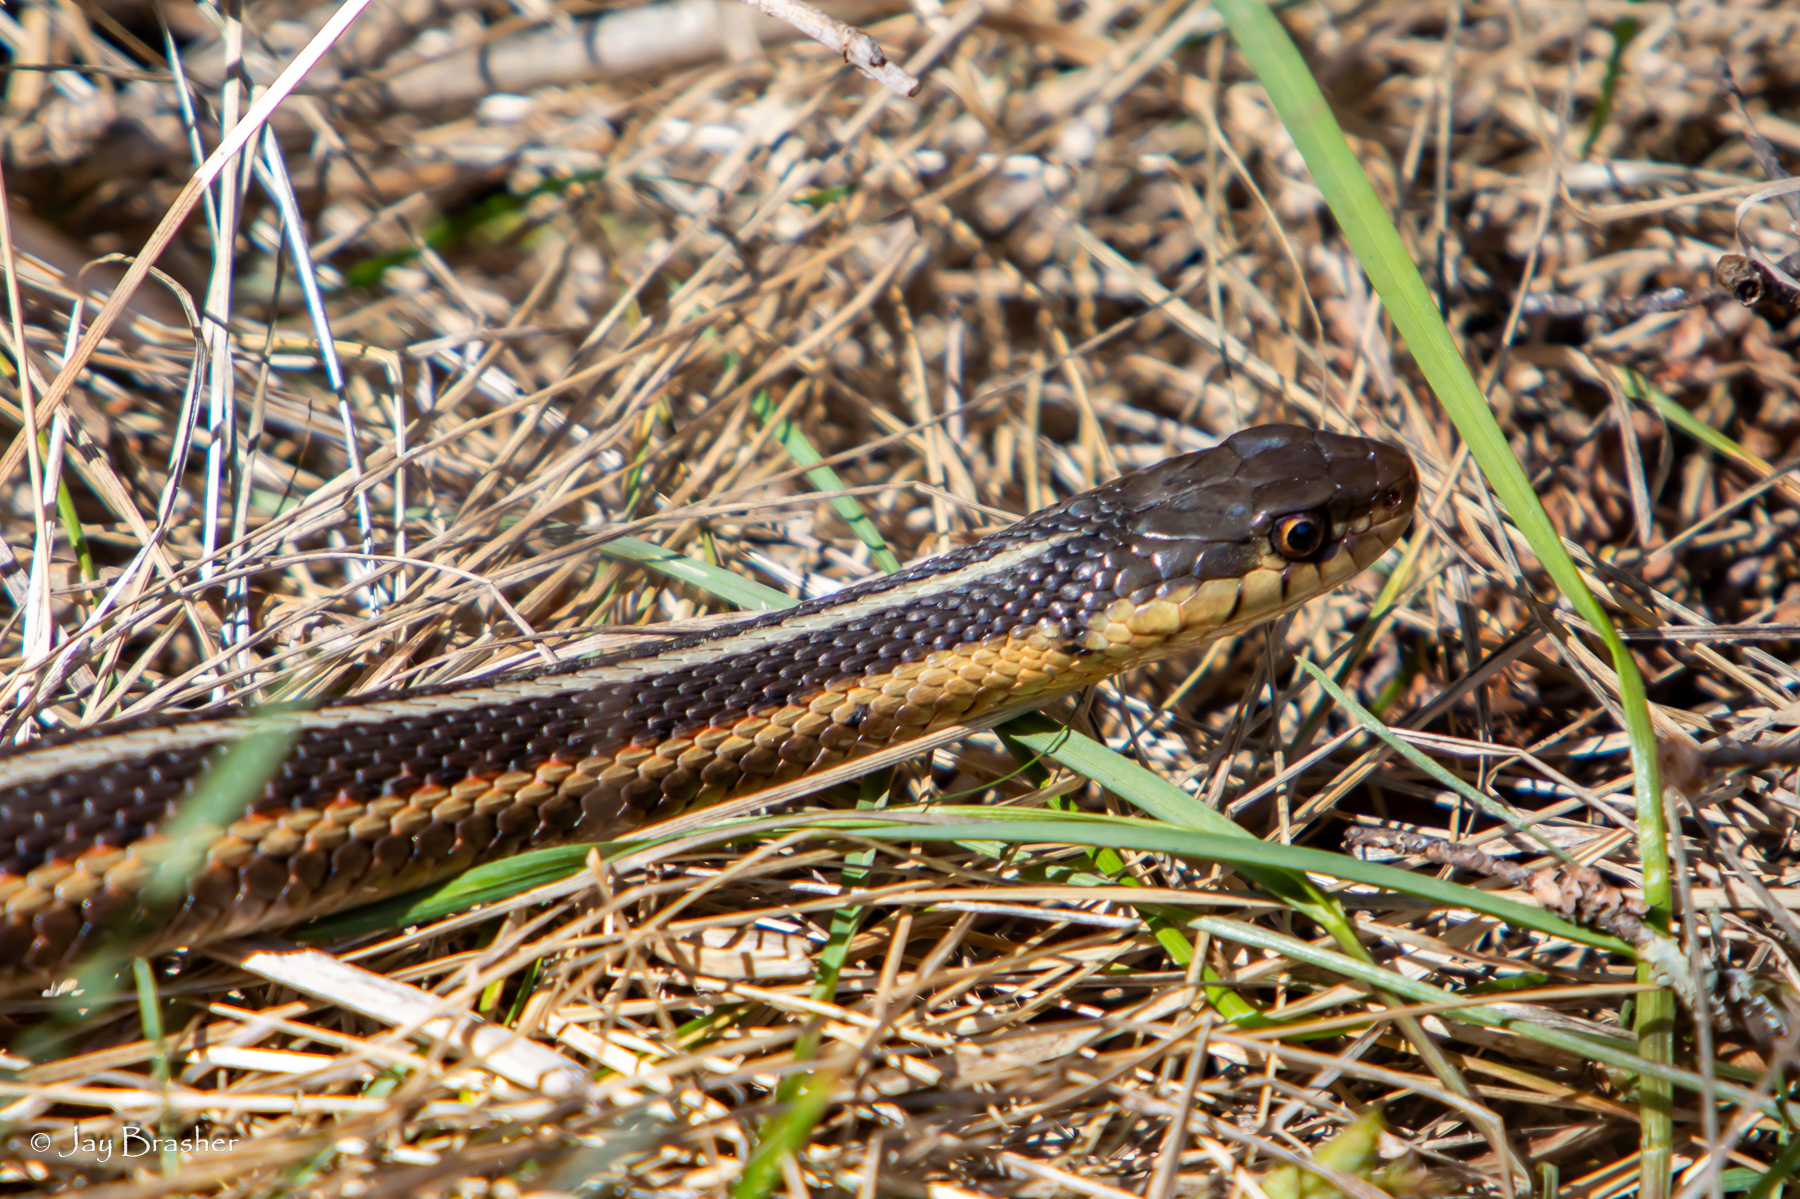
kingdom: Animalia
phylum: Chordata
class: Squamata
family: Colubridae
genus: Thamnophis
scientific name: Thamnophis sirtalis
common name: Common garter snake
